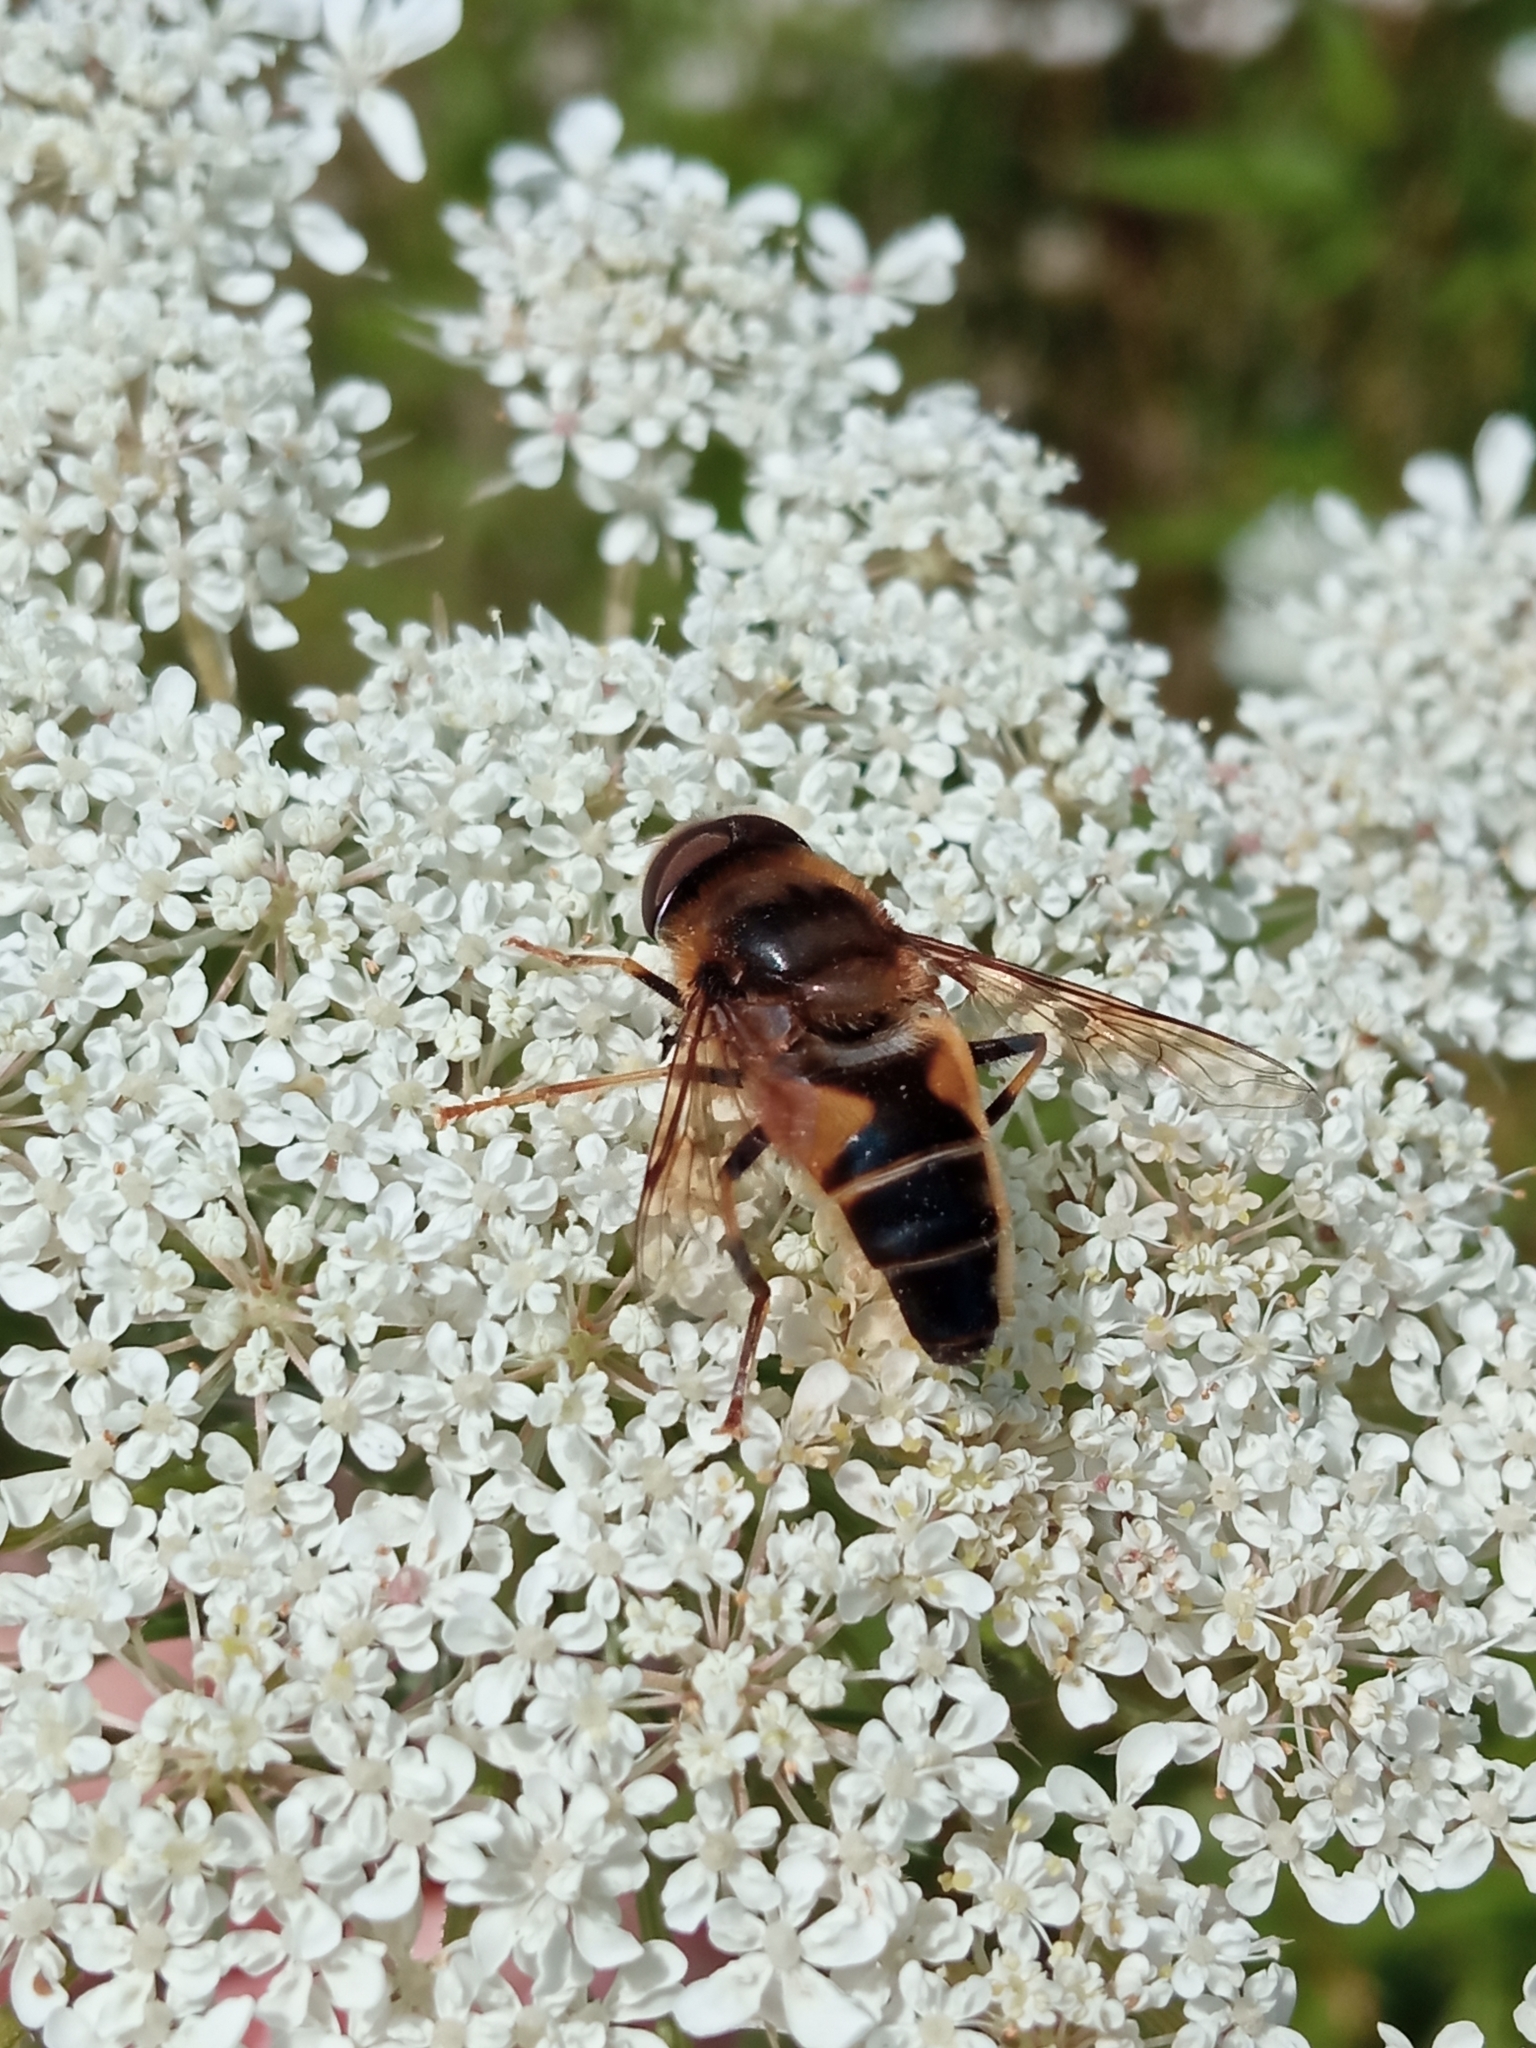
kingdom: Animalia
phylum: Arthropoda
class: Insecta
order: Diptera
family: Syrphidae
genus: Eristalis
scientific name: Eristalis pertinax
